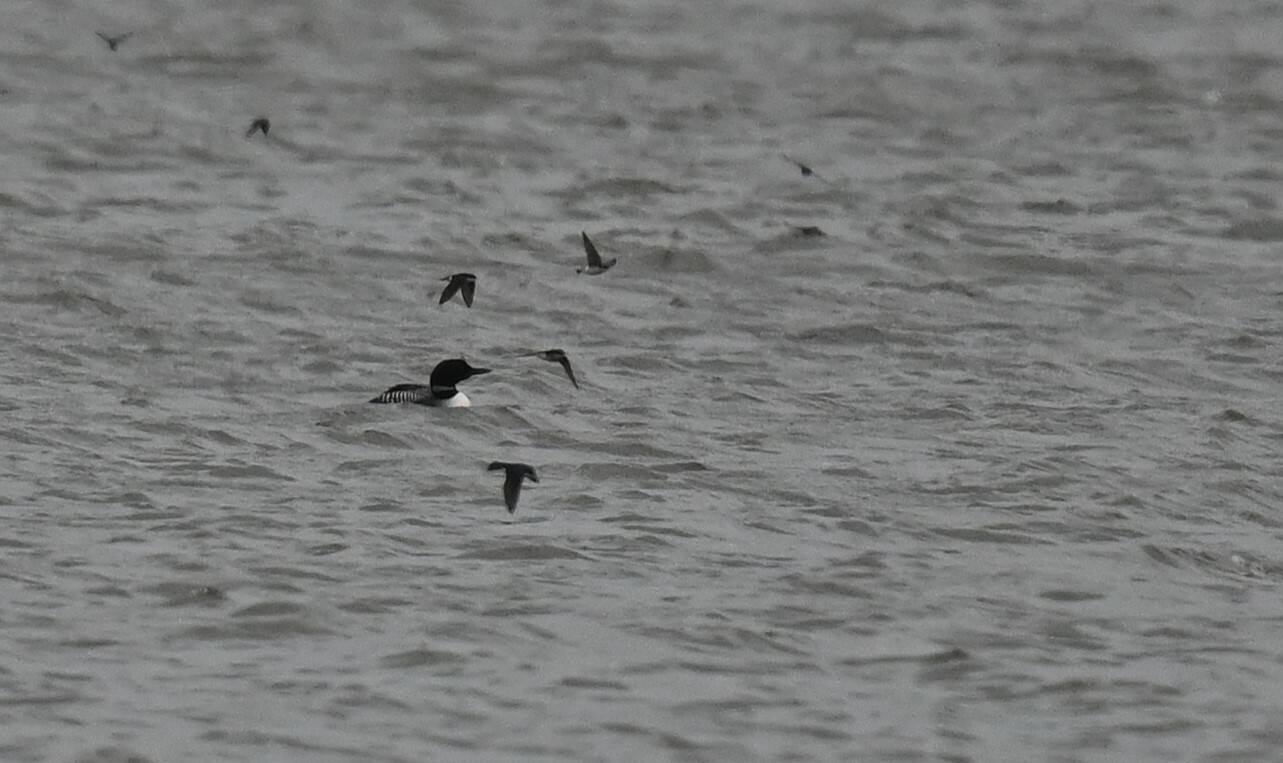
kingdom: Animalia
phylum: Chordata
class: Aves
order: Gaviiformes
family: Gaviidae
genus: Gavia
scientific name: Gavia immer
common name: Common loon
